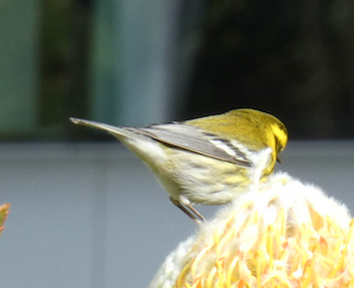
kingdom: Animalia
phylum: Chordata
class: Aves
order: Passeriformes
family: Parulidae
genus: Setophaga
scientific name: Setophaga townsendi
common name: Townsend's warbler
